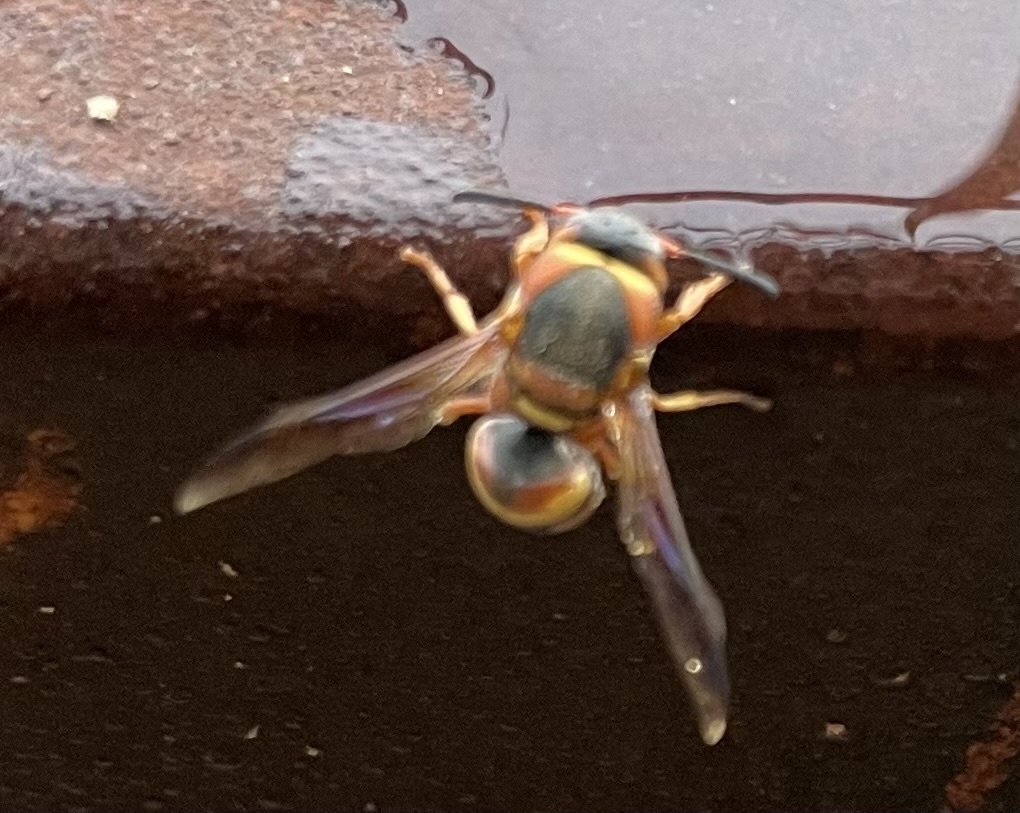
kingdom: Animalia
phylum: Arthropoda
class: Insecta
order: Hymenoptera
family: Eumenidae
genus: Euodynerus
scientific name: Euodynerus
